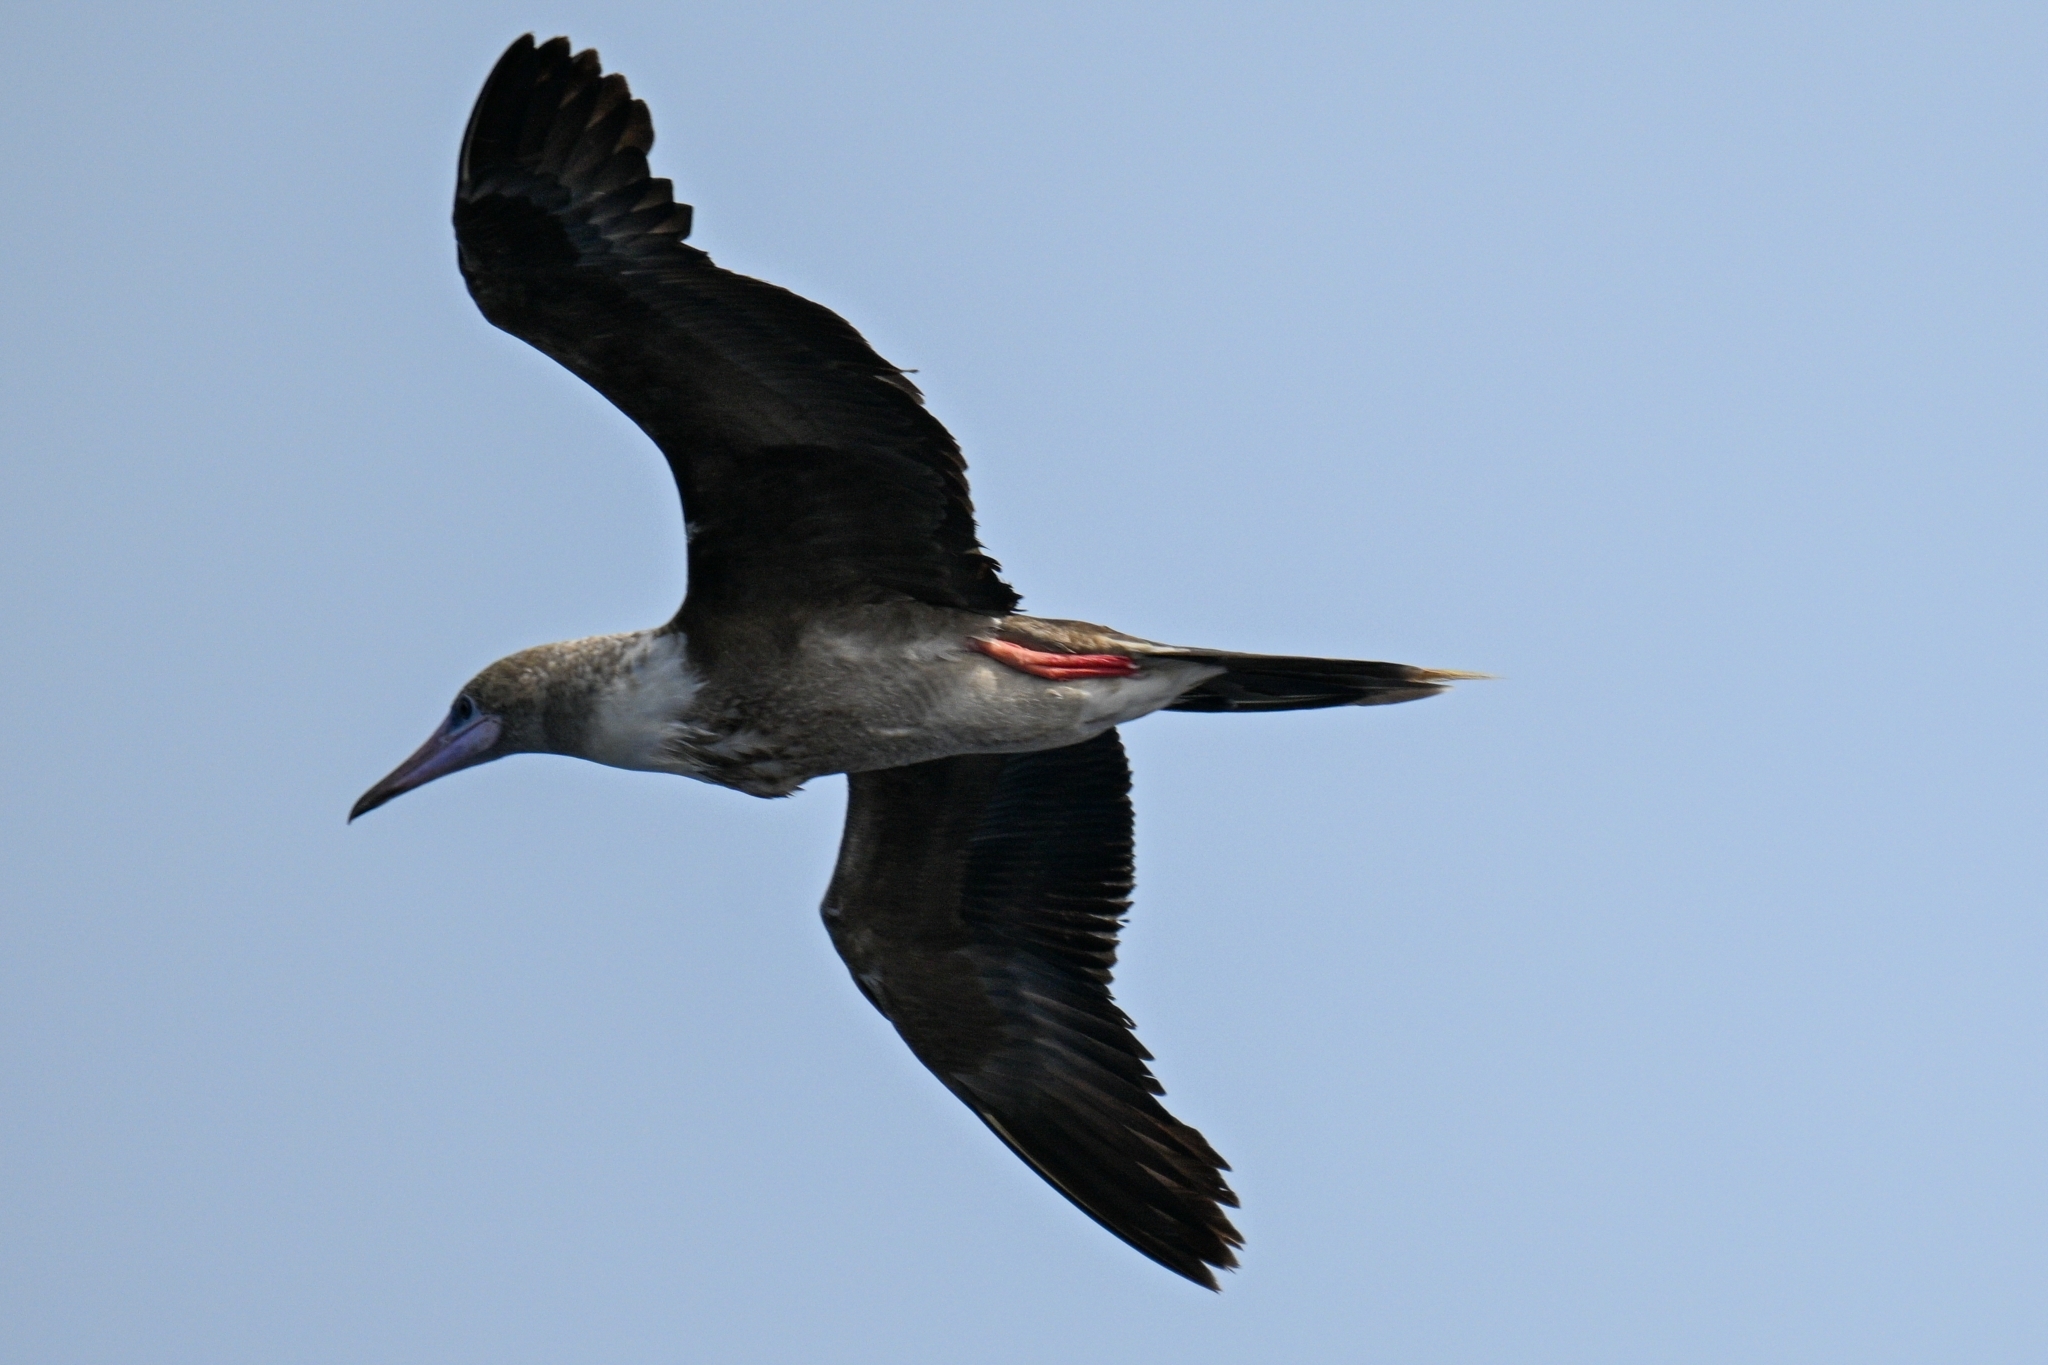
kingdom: Animalia
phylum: Chordata
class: Aves
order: Suliformes
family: Sulidae
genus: Sula
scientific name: Sula sula
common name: Red-footed booby
